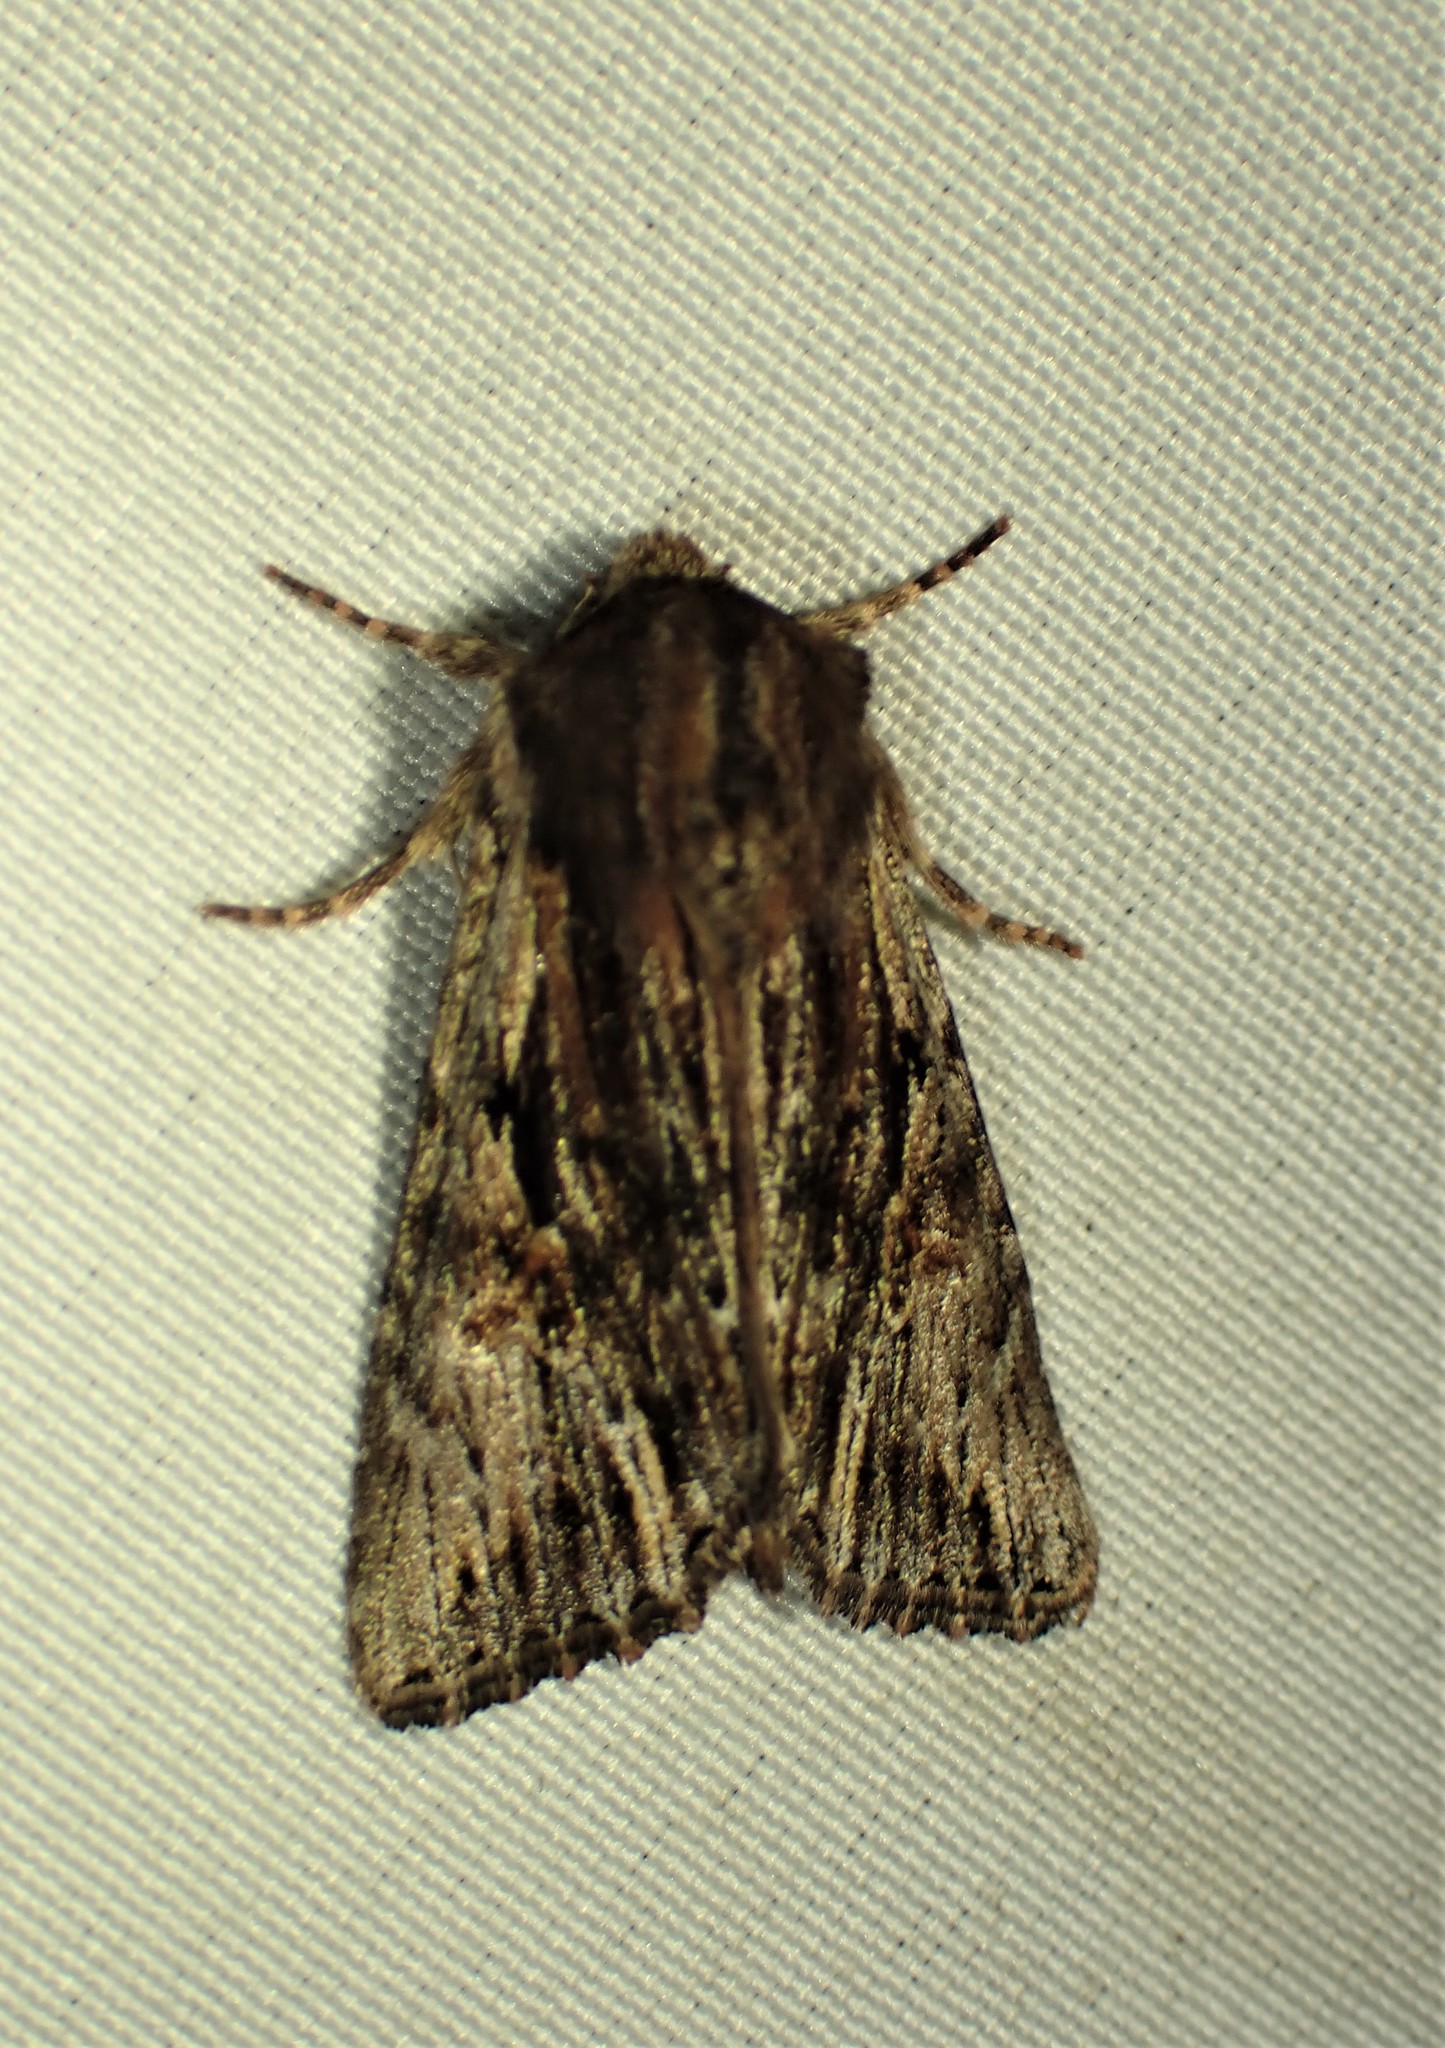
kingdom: Animalia
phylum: Arthropoda
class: Insecta
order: Lepidoptera
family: Noctuidae
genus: Achatia
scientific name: Achatia evicta
